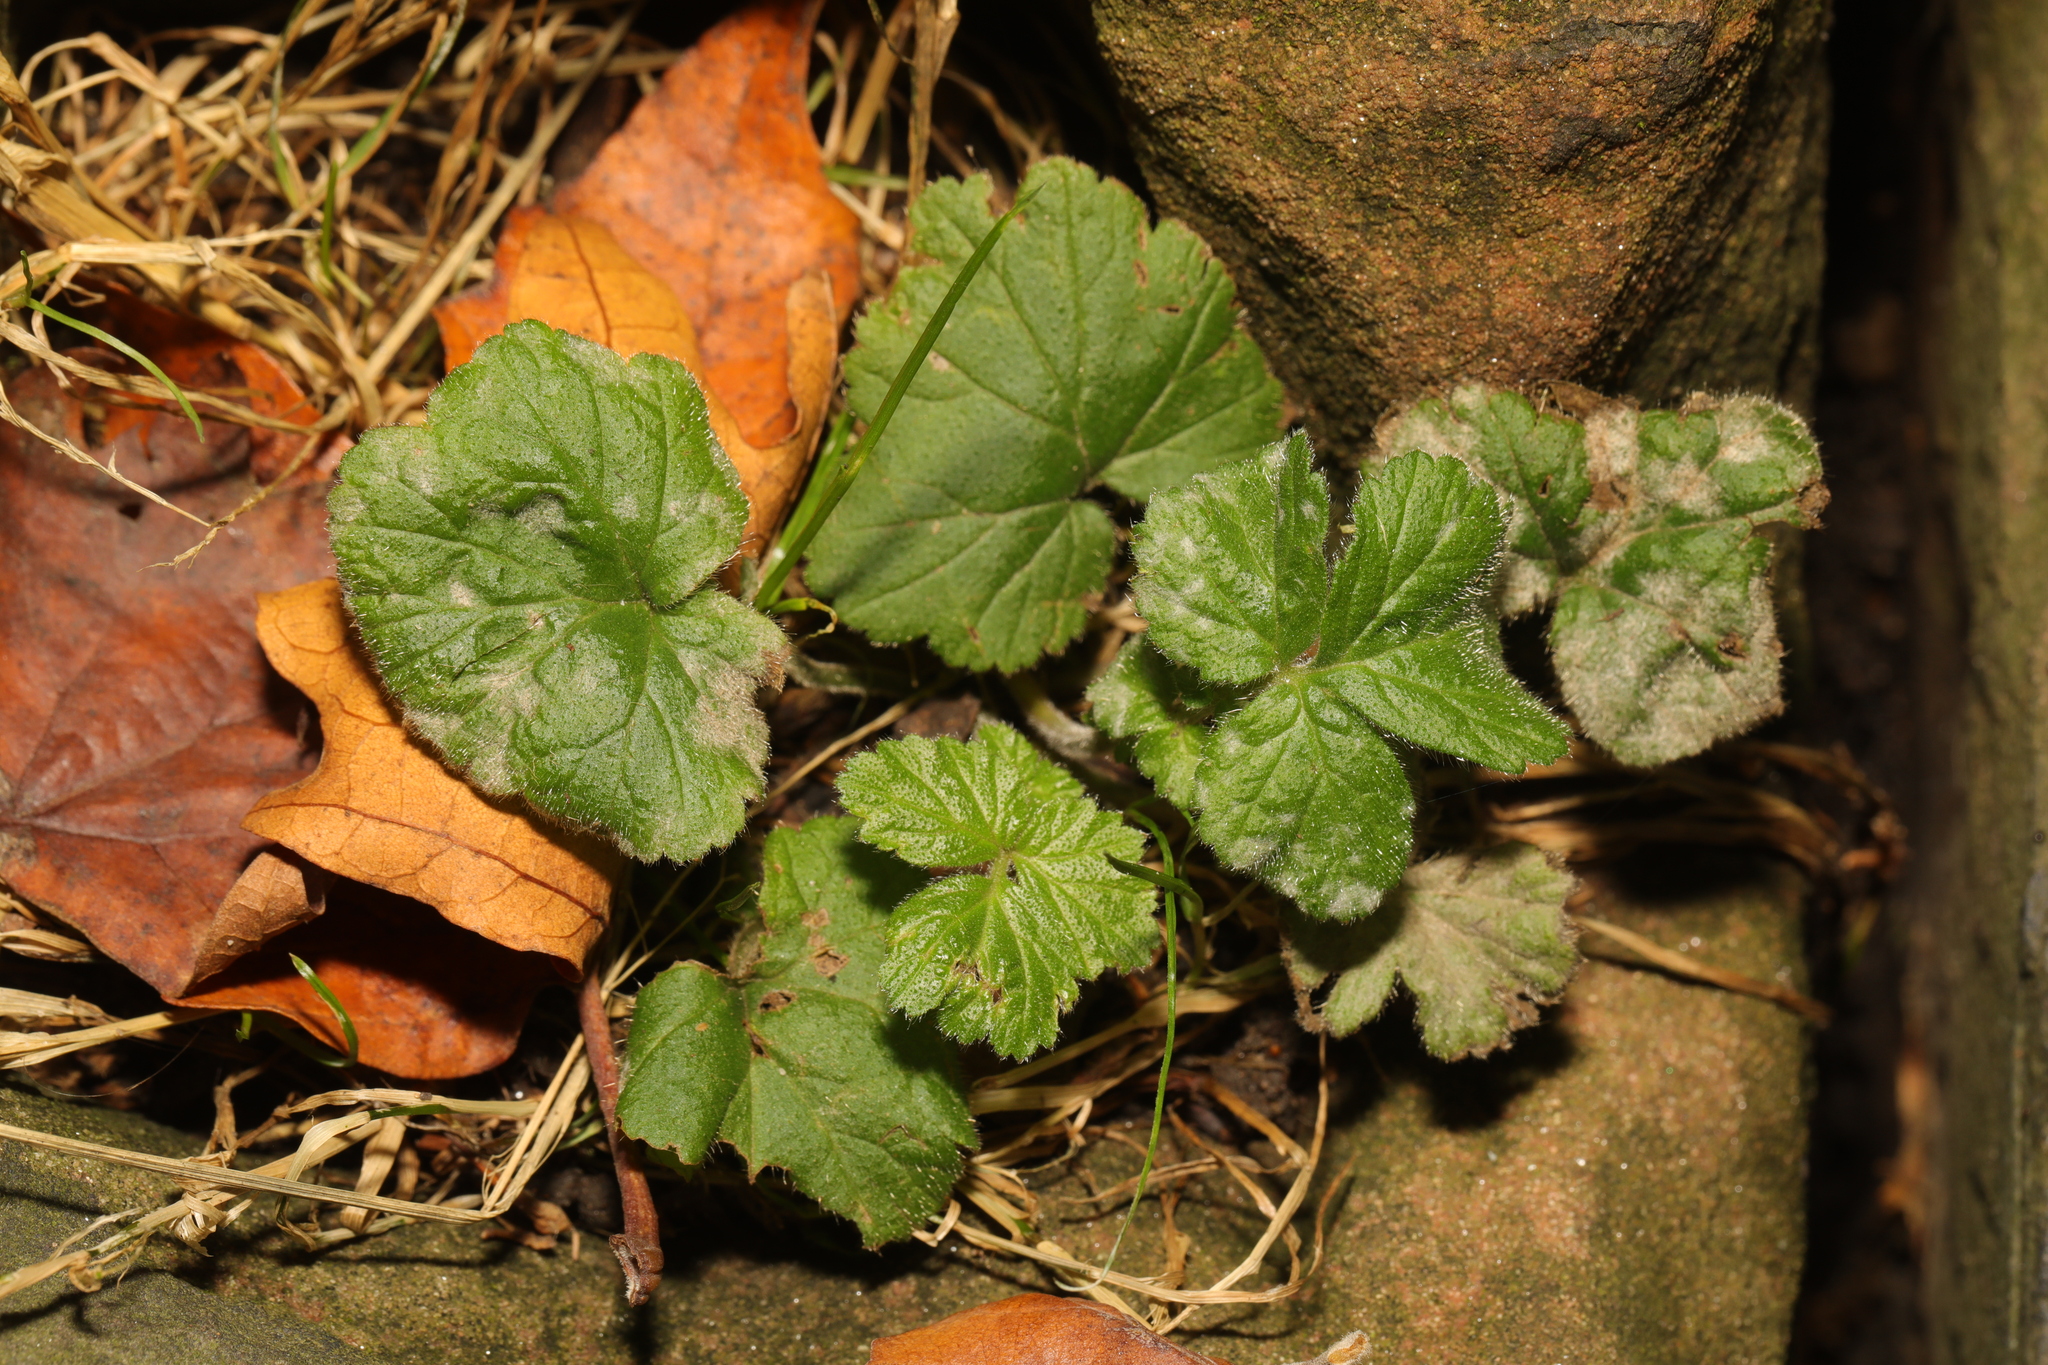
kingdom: Plantae
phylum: Tracheophyta
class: Magnoliopsida
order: Rosales
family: Rosaceae
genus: Geum
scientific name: Geum urbanum
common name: Wood avens
